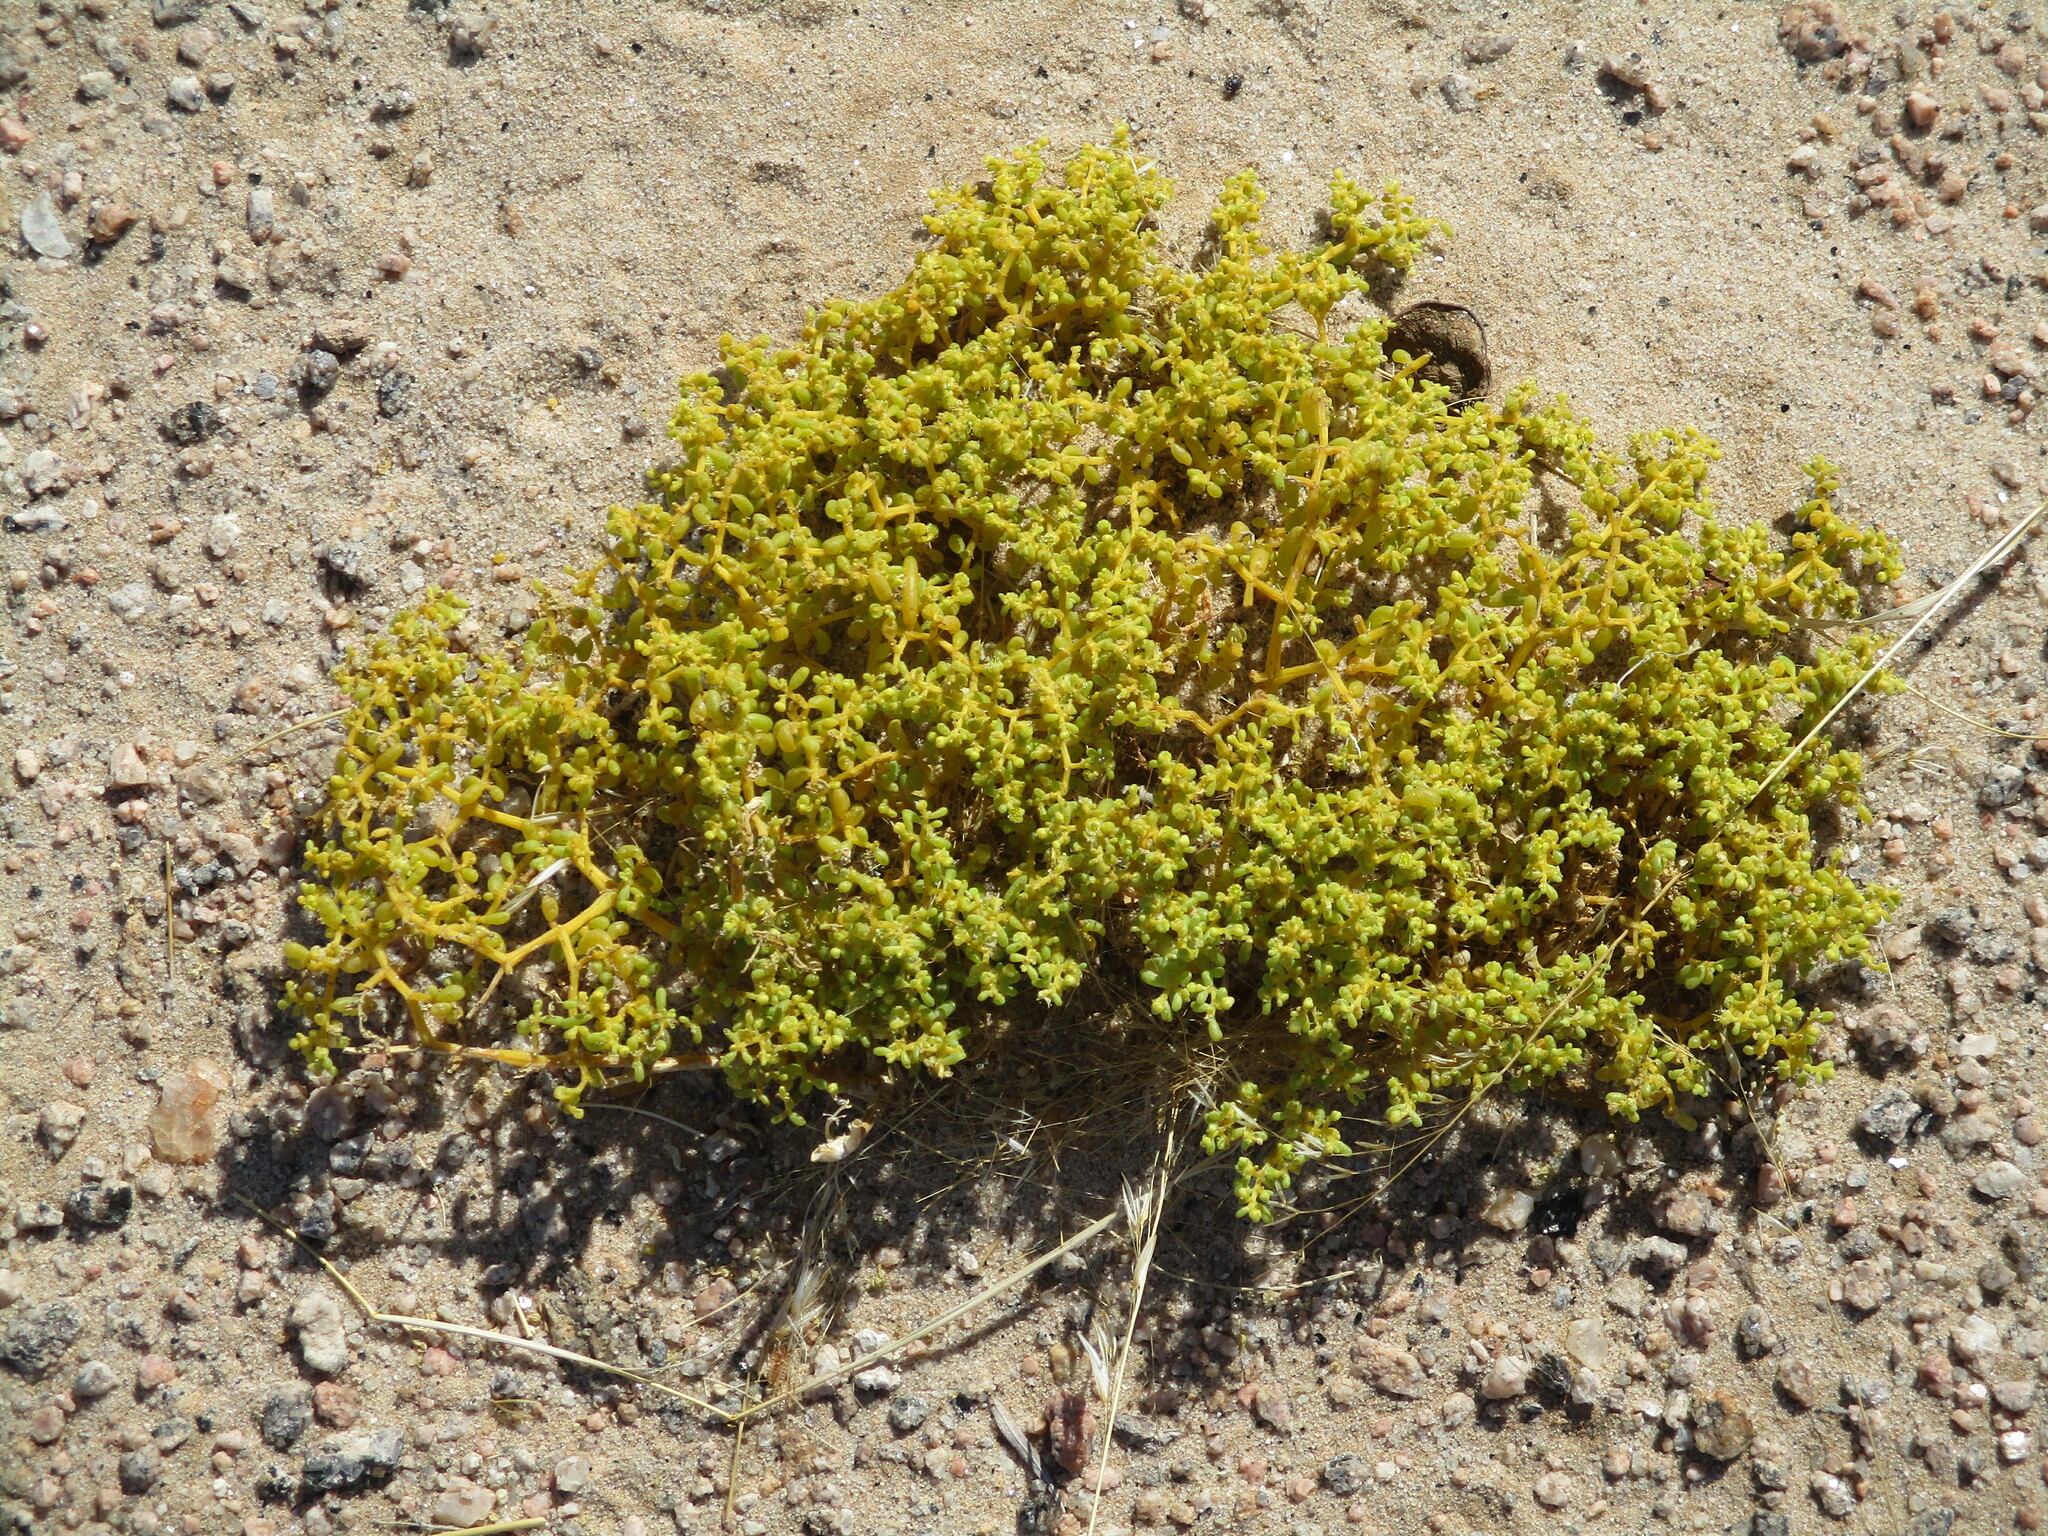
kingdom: Plantae
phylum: Tracheophyta
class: Magnoliopsida
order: Zygophyllales
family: Zygophyllaceae
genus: Tetraena
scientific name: Tetraena simplex
